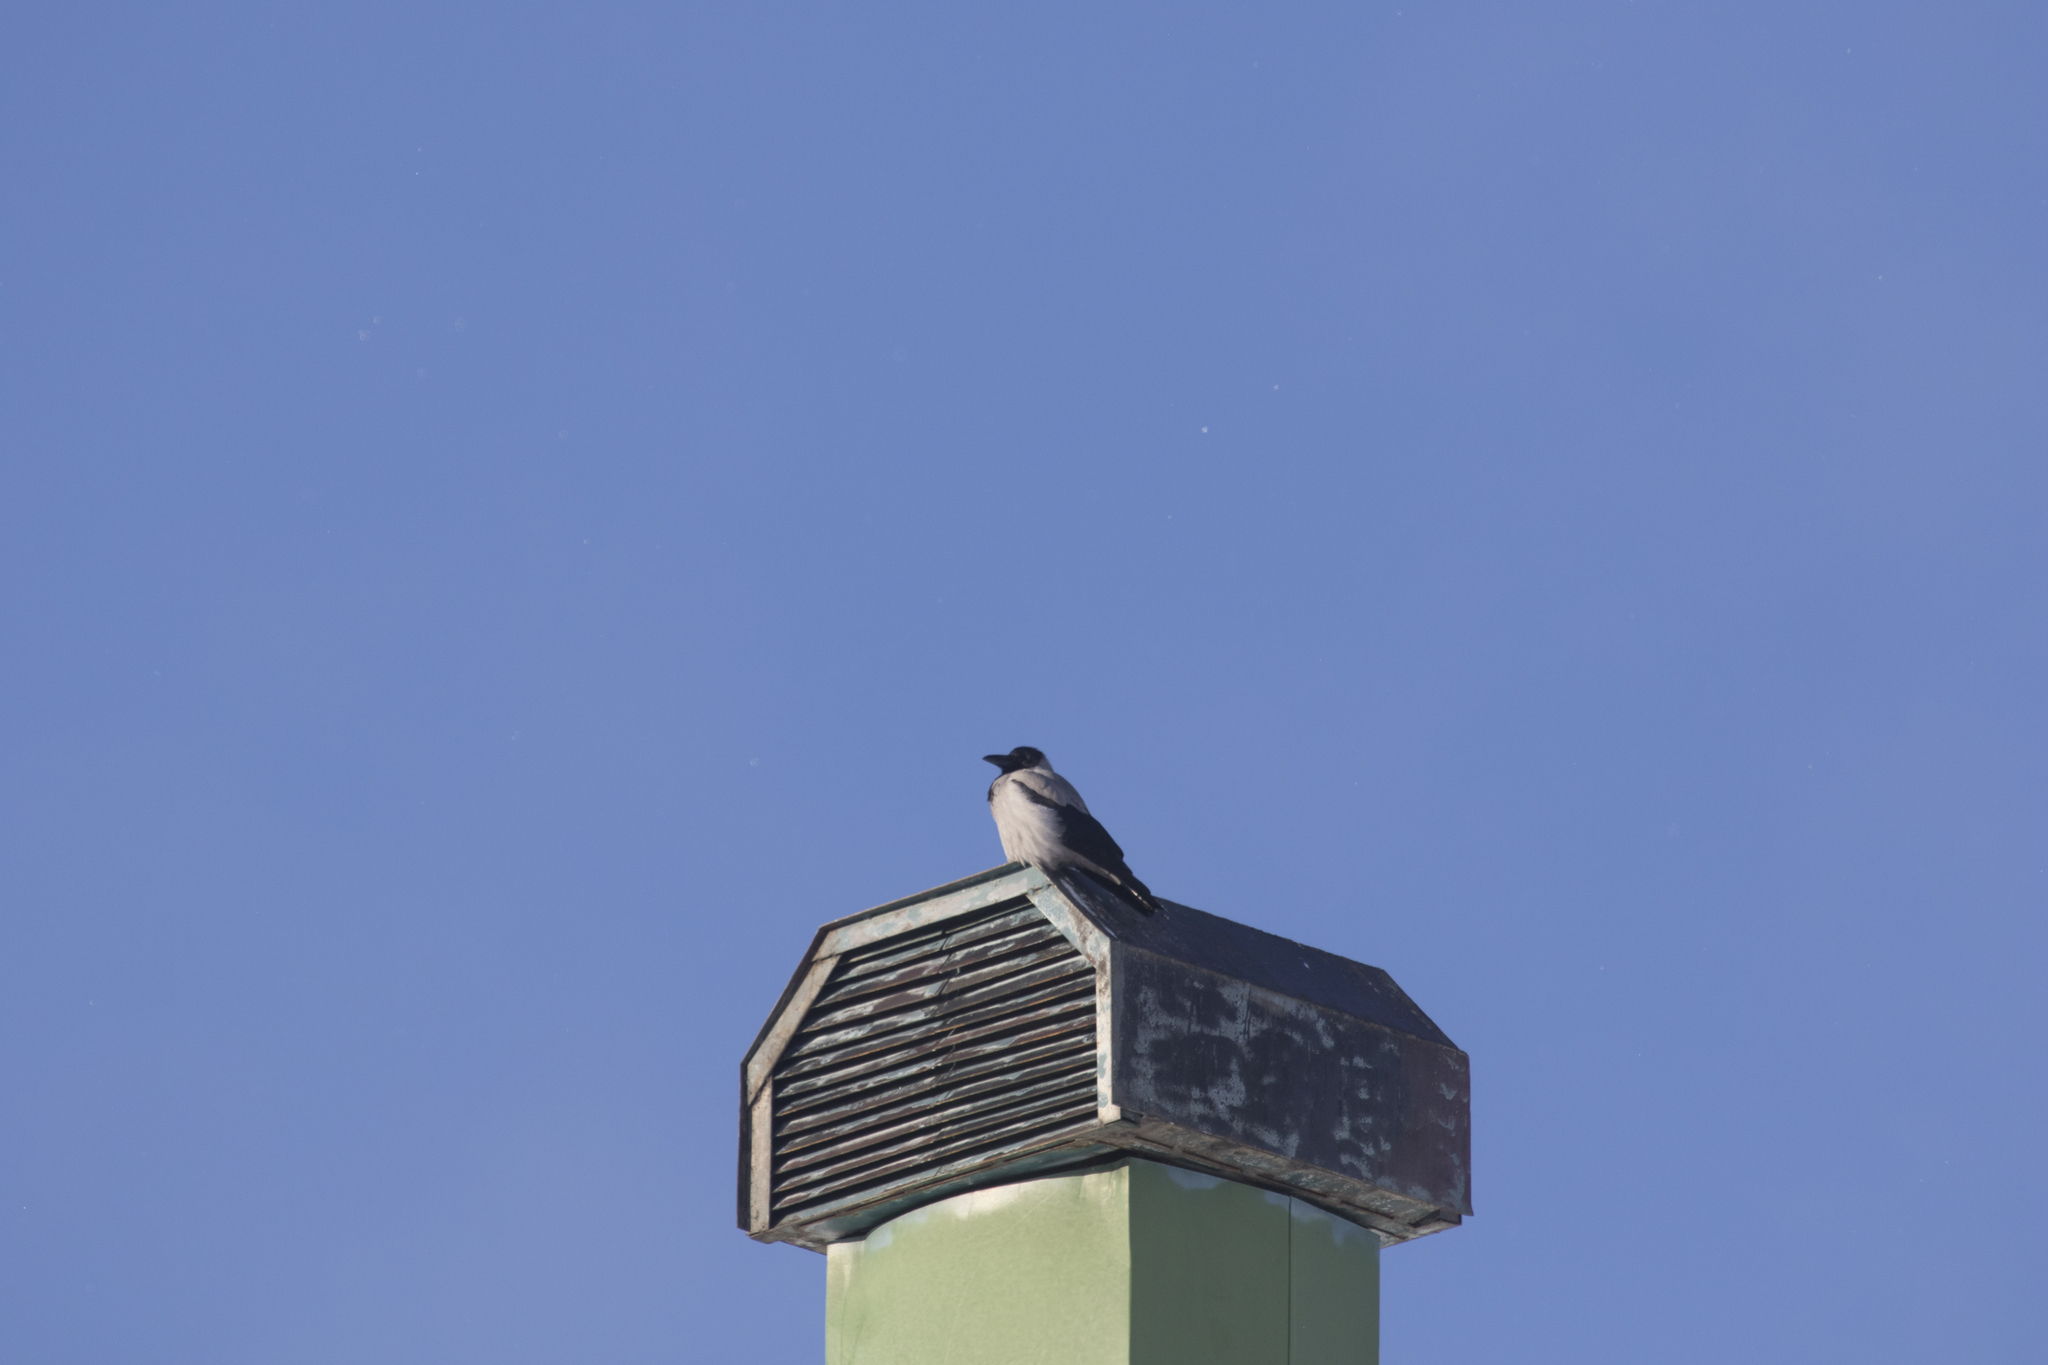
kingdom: Animalia
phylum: Chordata
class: Aves
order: Passeriformes
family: Corvidae
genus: Corvus
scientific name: Corvus cornix
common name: Hooded crow
